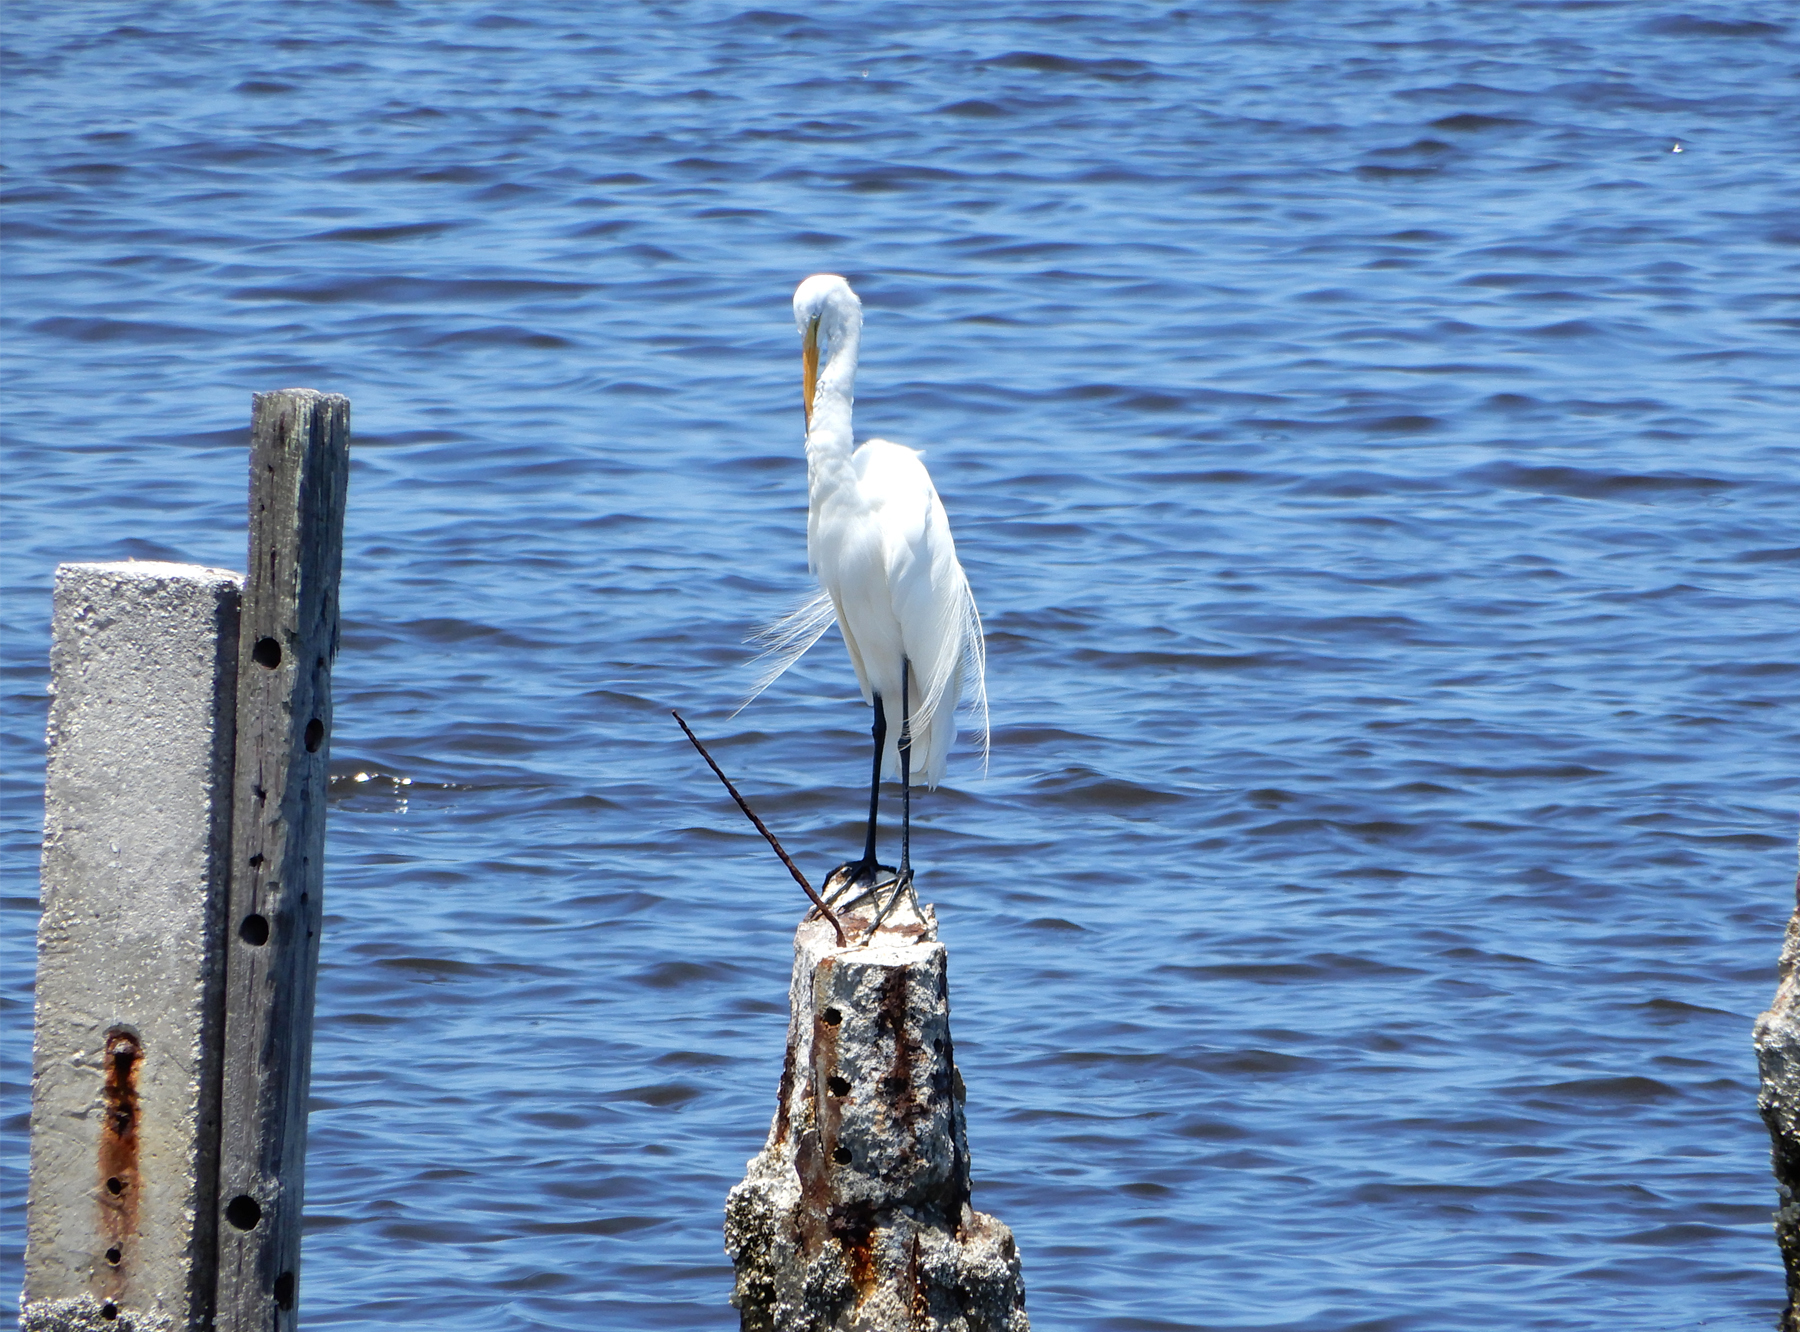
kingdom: Animalia
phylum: Chordata
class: Aves
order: Pelecaniformes
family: Ardeidae
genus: Ardea
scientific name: Ardea alba
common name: Great egret
